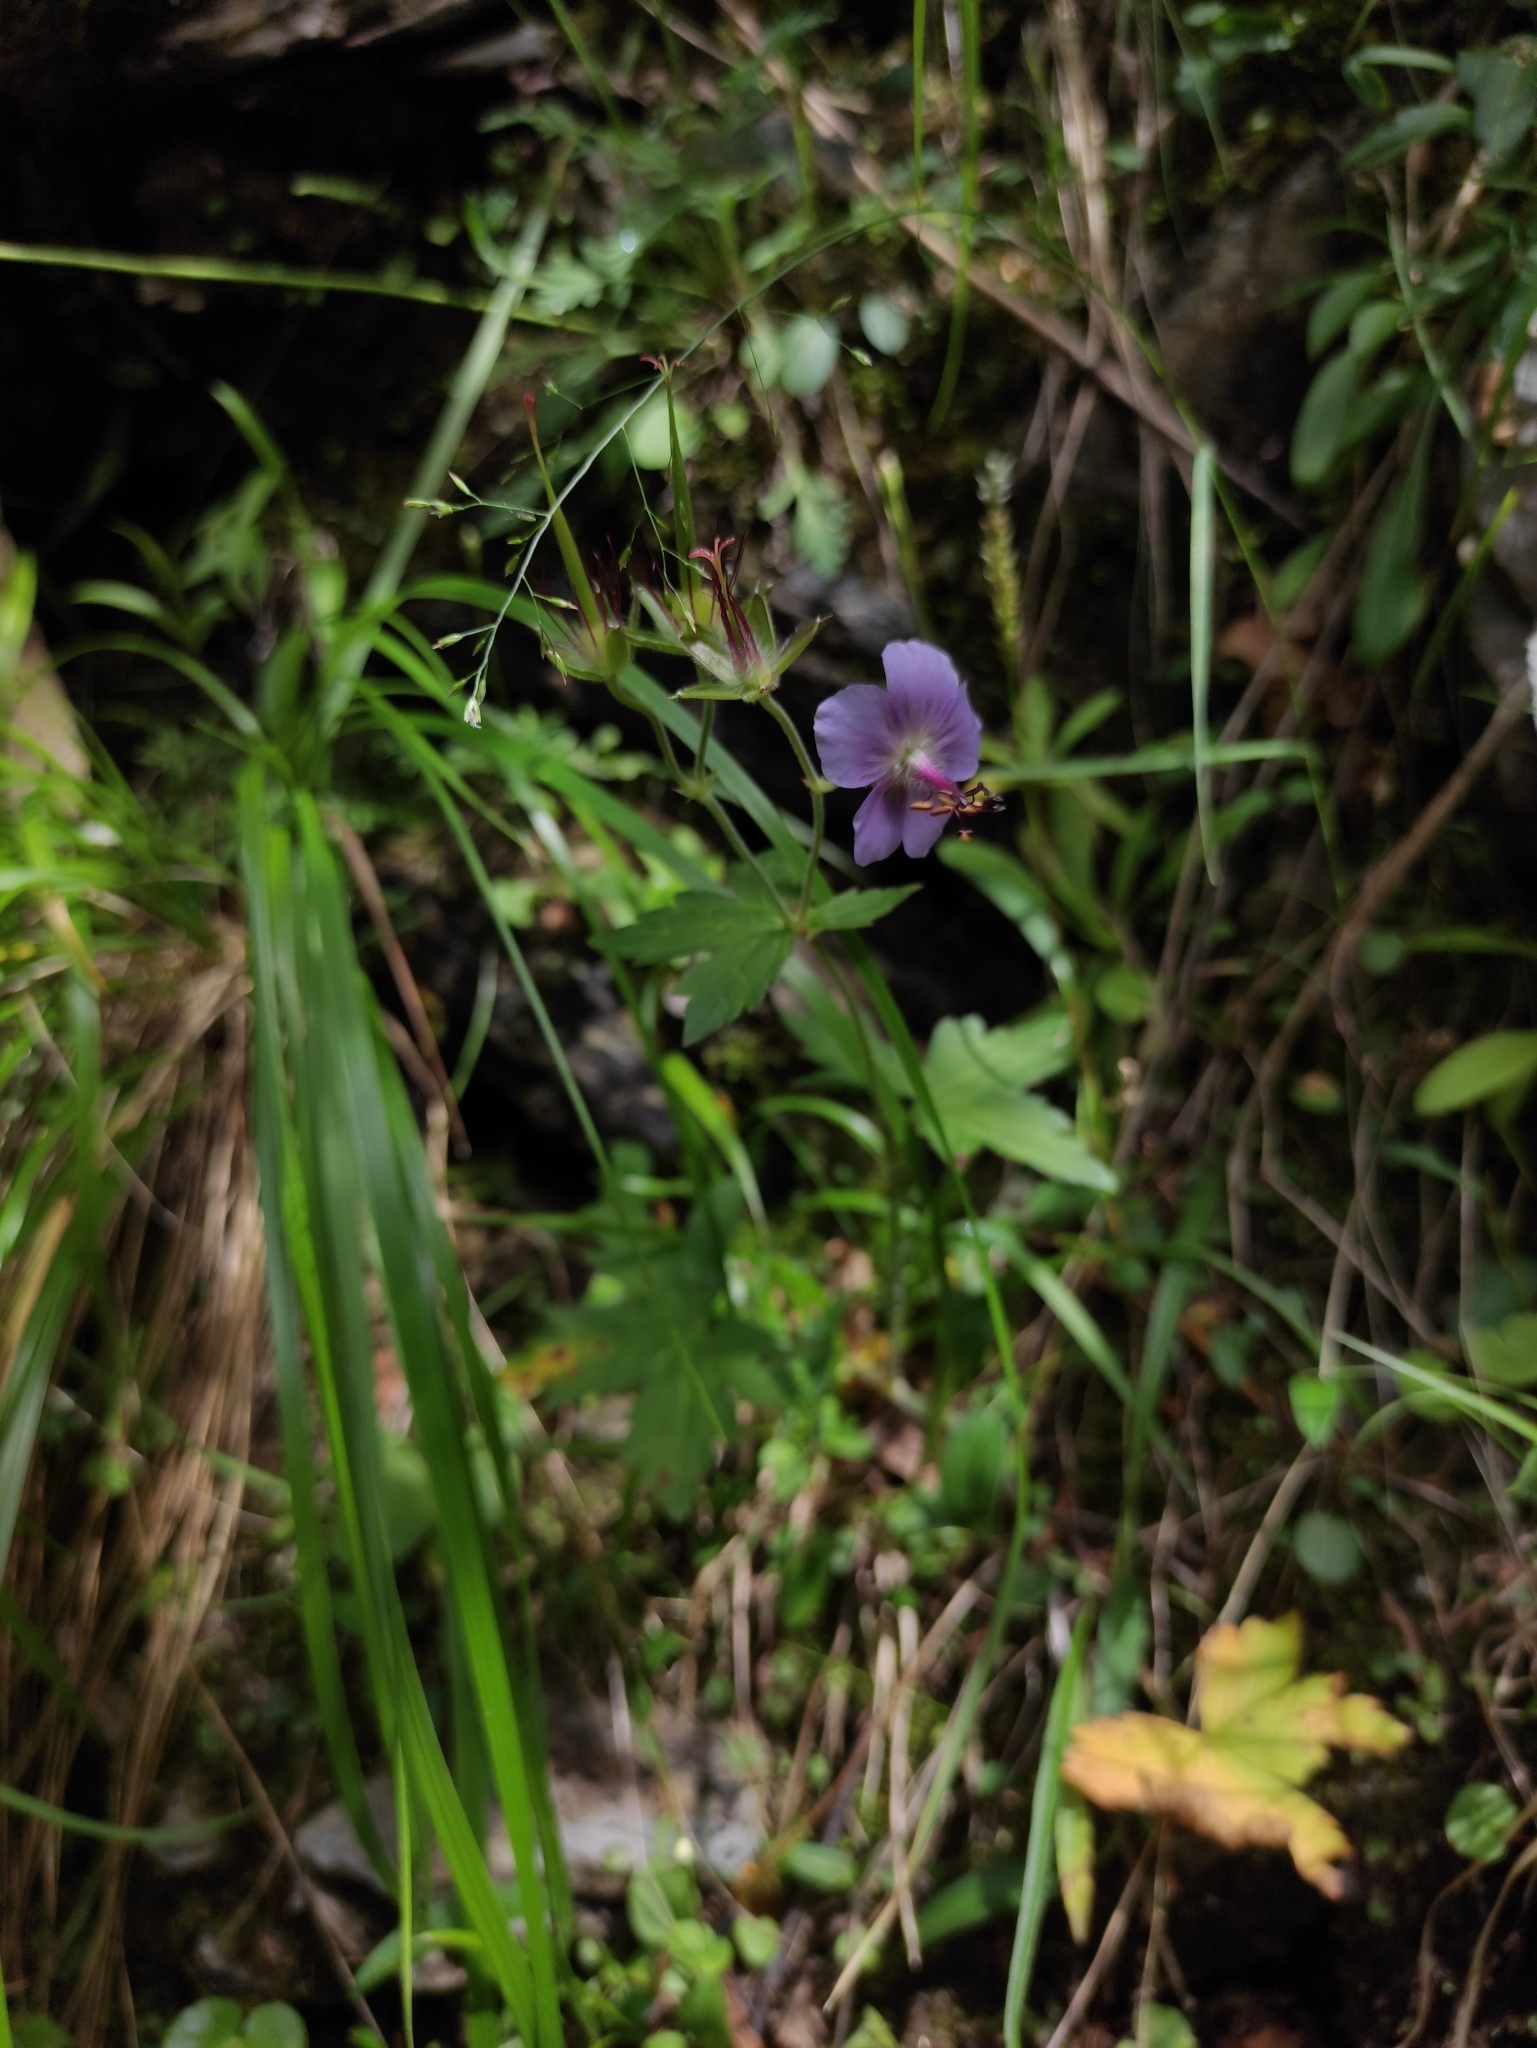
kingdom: Plantae
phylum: Tracheophyta
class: Magnoliopsida
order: Geraniales
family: Geraniaceae
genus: Geranium
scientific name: Geranium platyanthum
